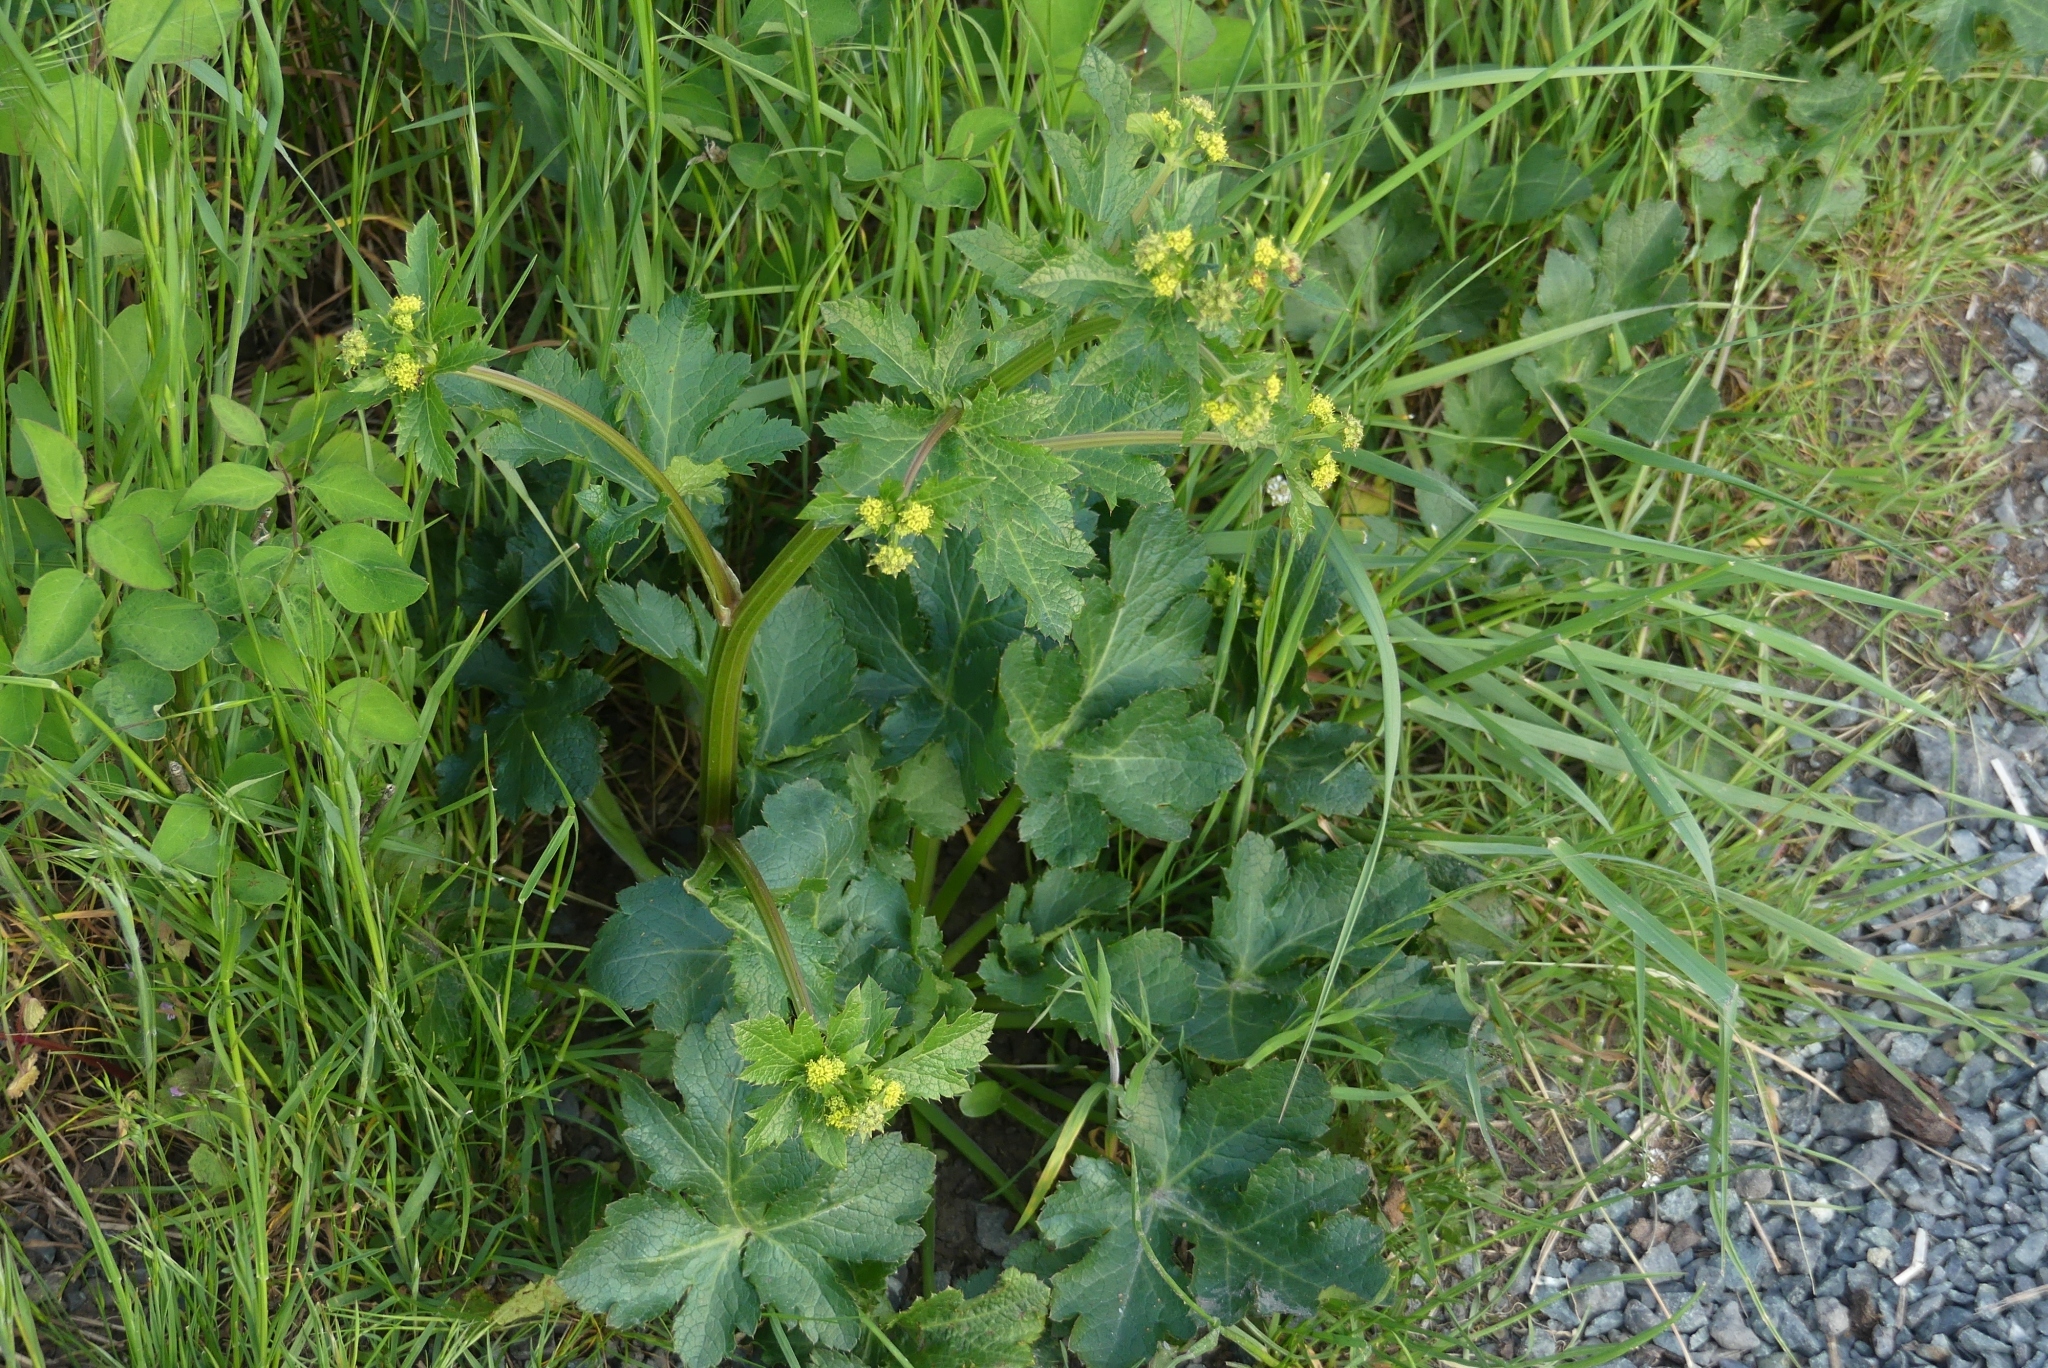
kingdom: Plantae
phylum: Tracheophyta
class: Magnoliopsida
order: Apiales
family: Apiaceae
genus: Sanicula
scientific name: Sanicula crassicaulis
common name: Western snakeroot
